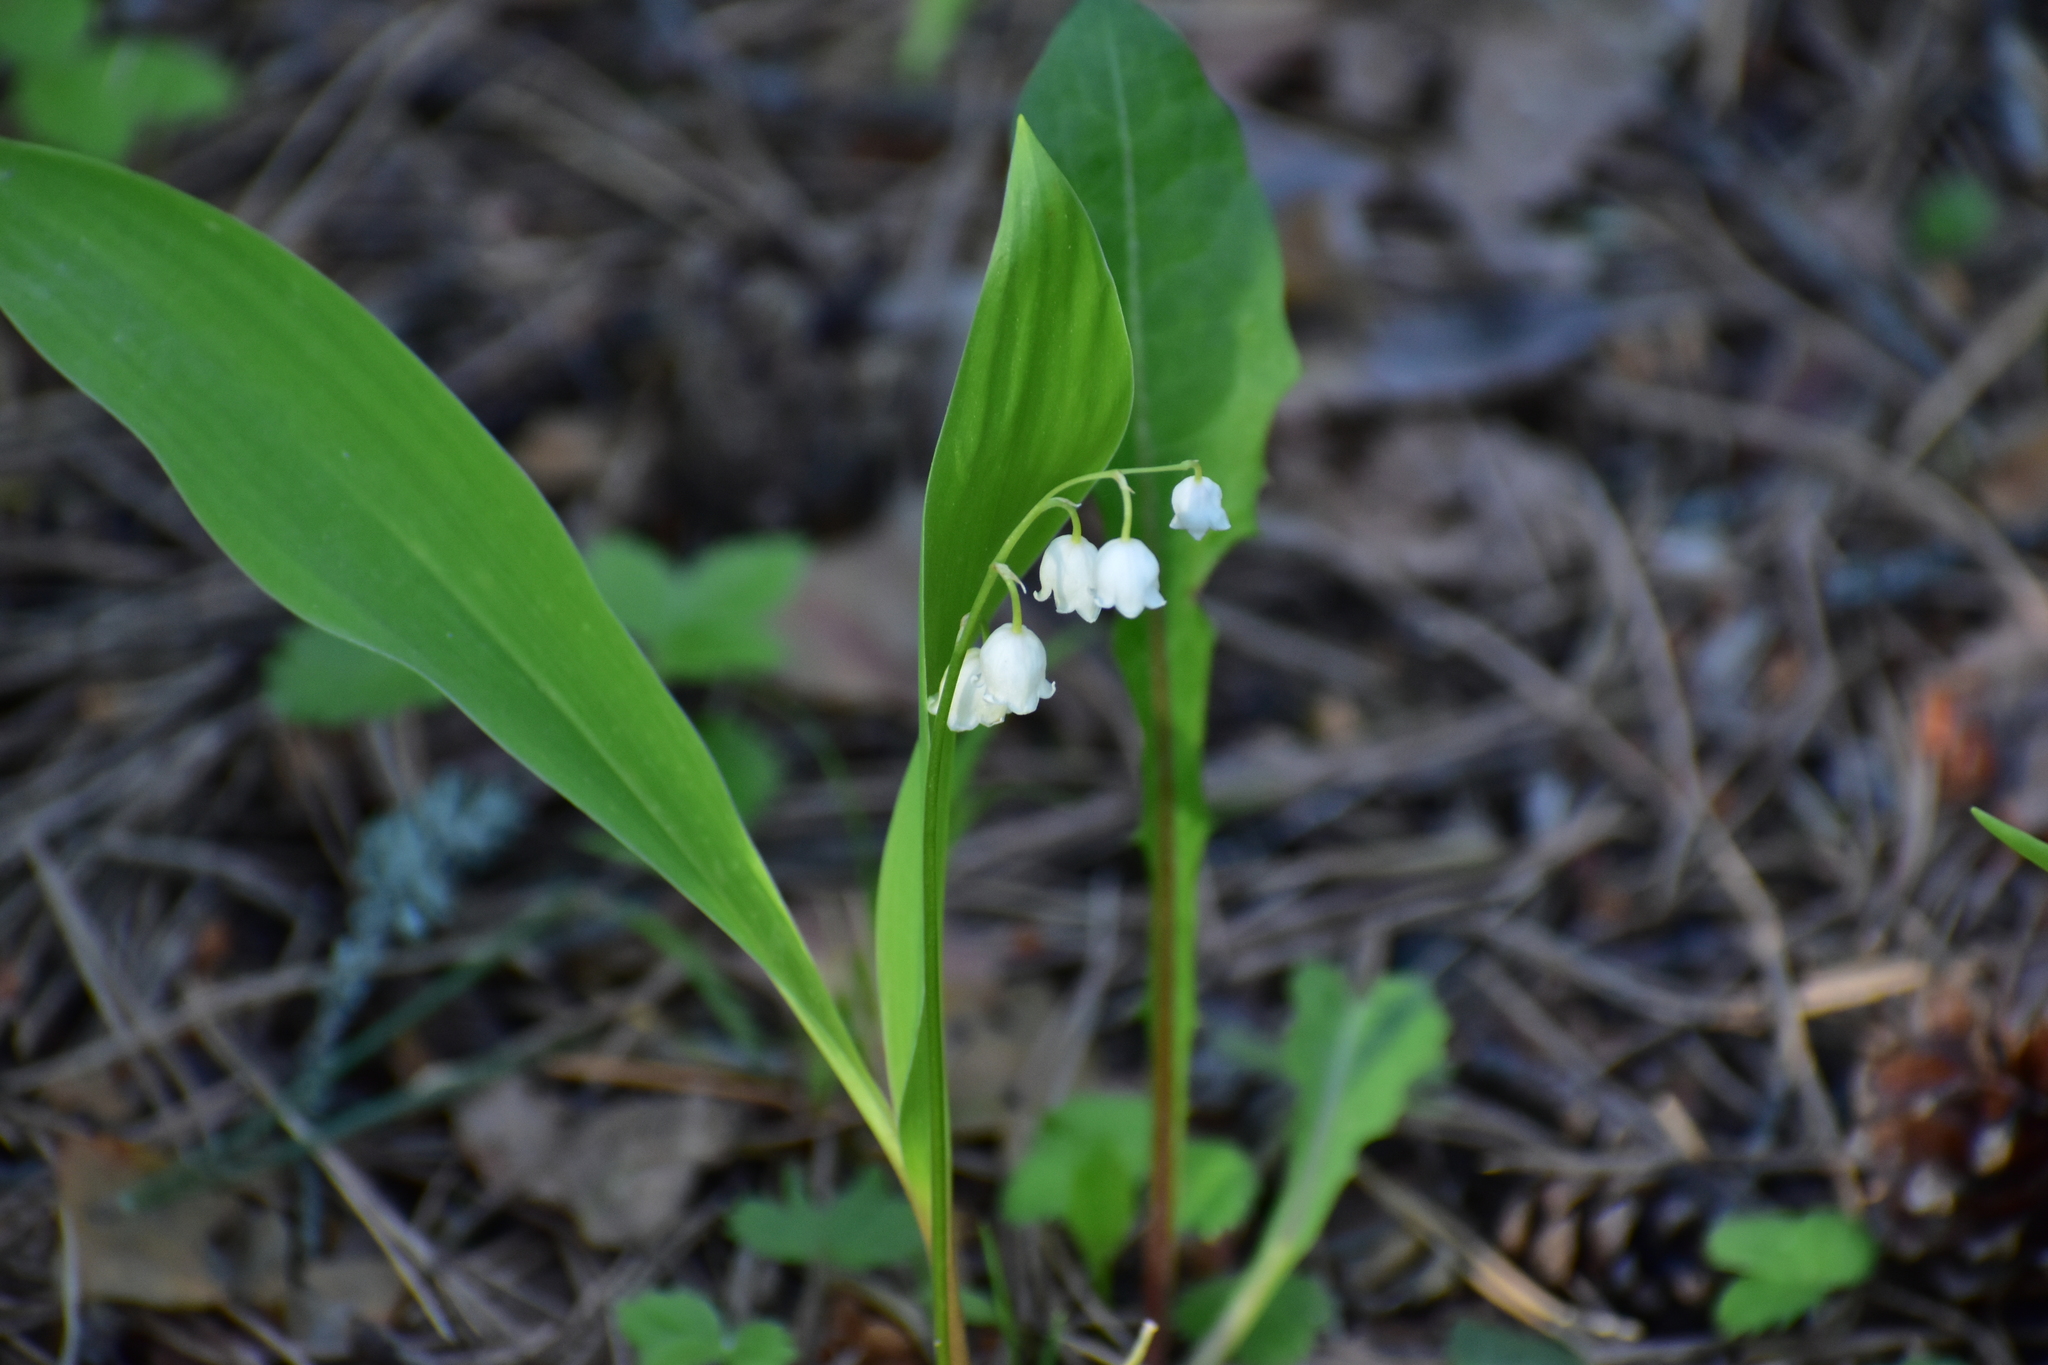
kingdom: Plantae
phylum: Tracheophyta
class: Liliopsida
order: Asparagales
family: Asparagaceae
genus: Convallaria
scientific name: Convallaria majalis
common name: Lily-of-the-valley
